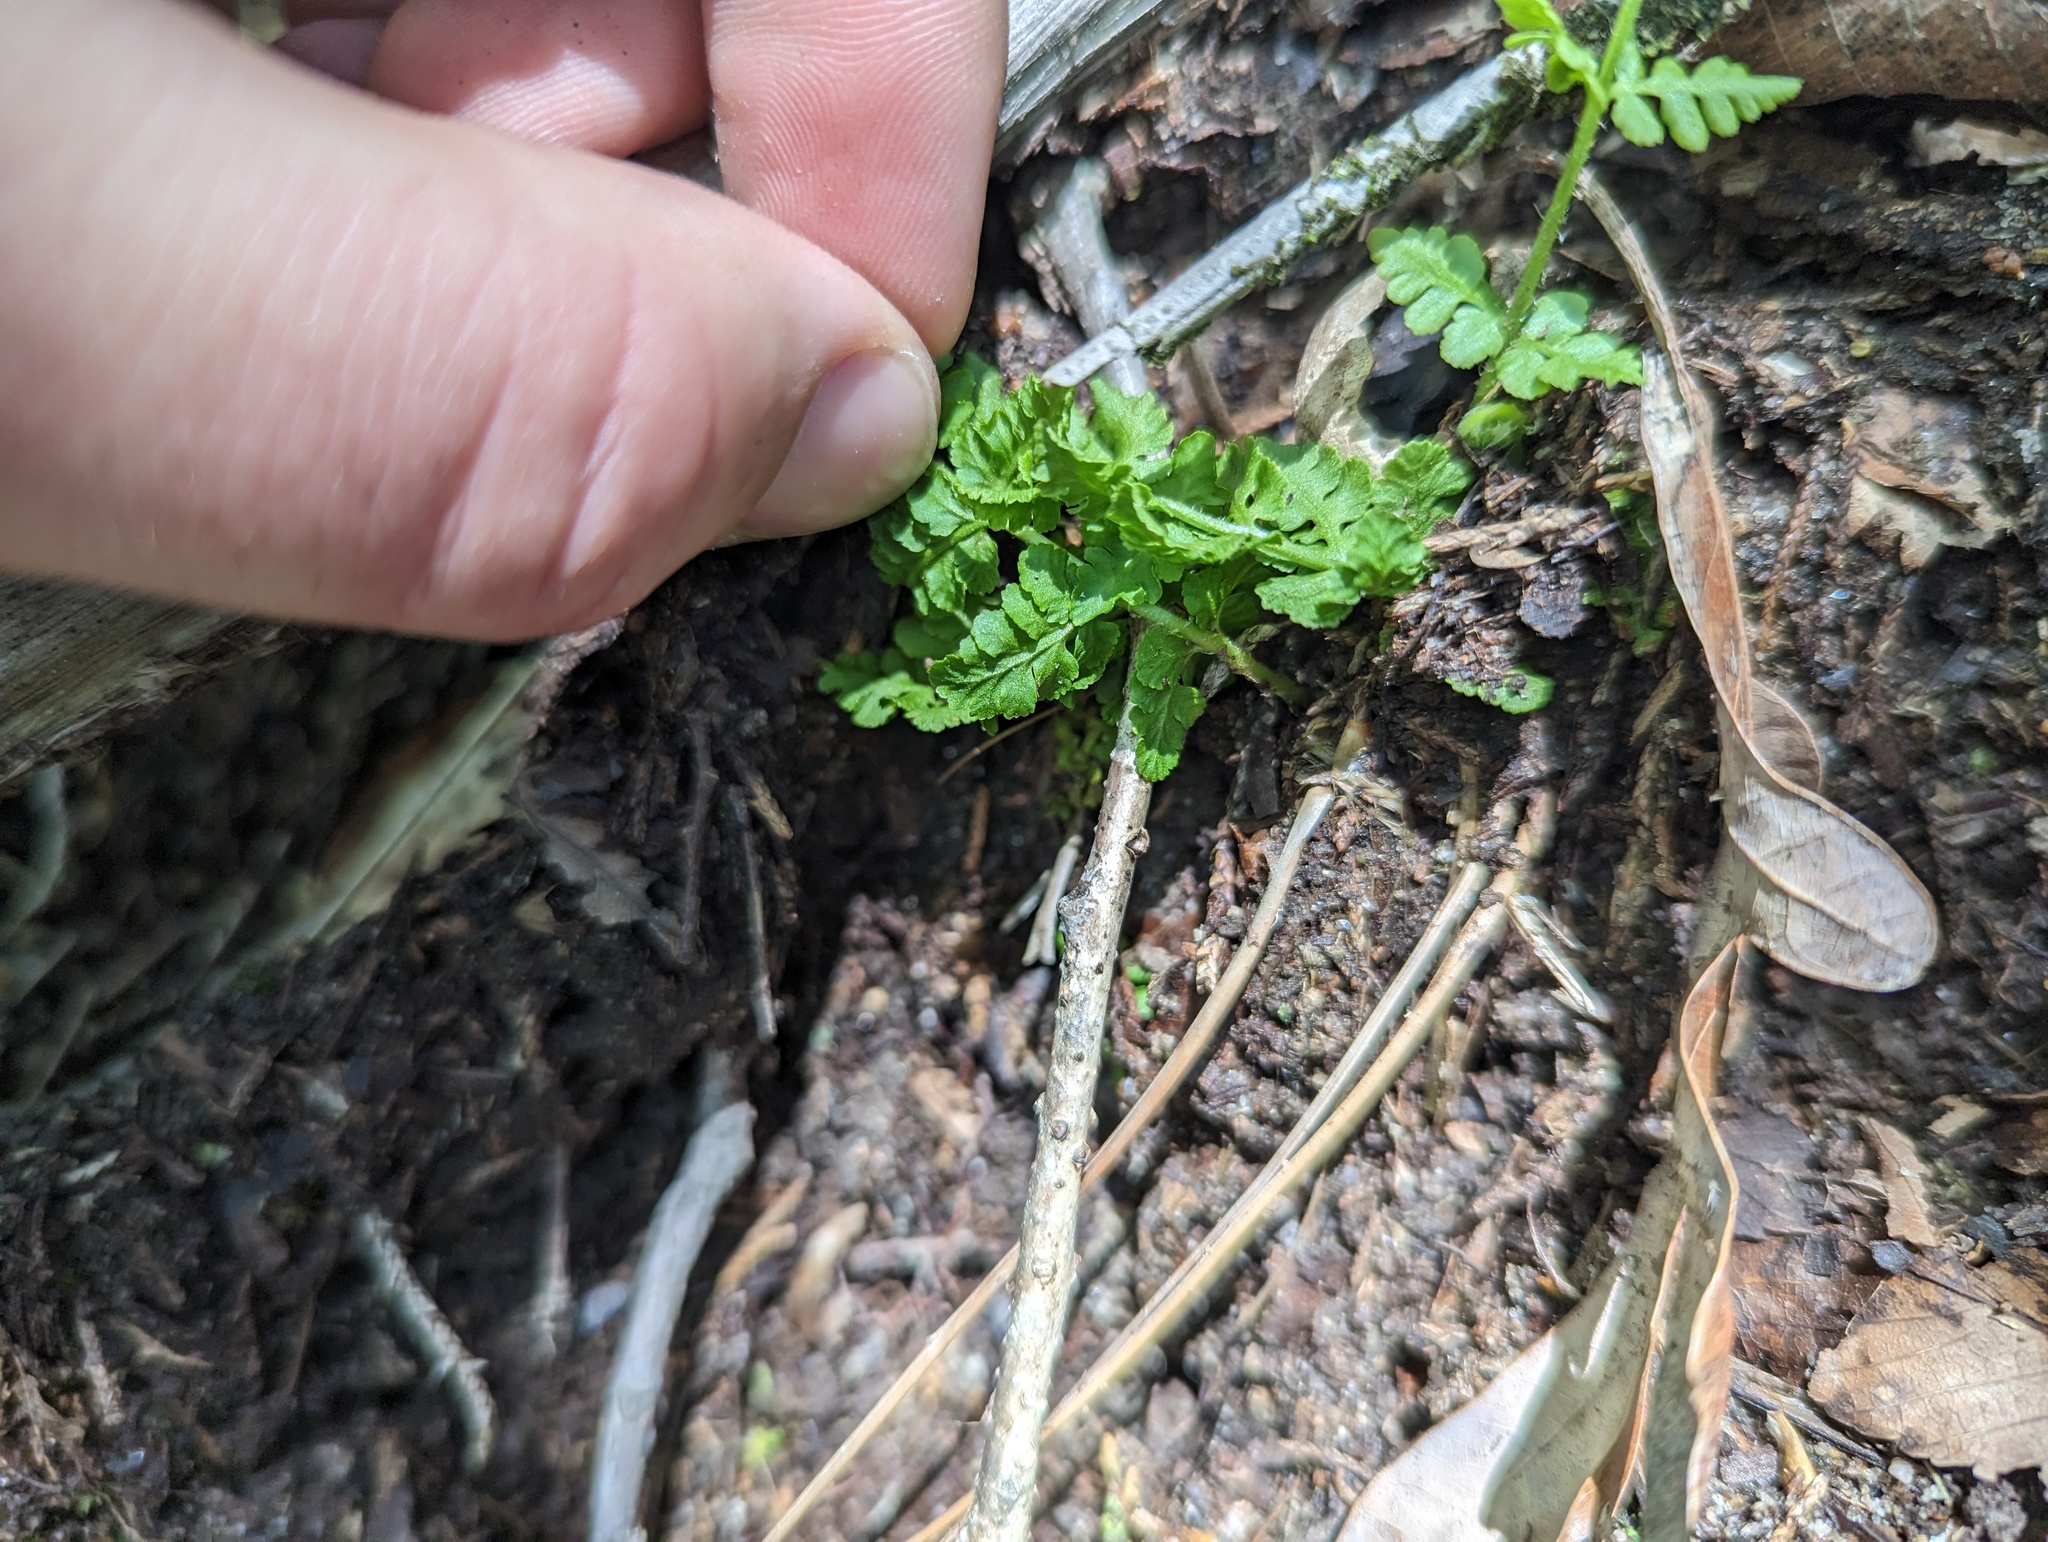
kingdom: Plantae
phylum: Tracheophyta
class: Polypodiopsida
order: Polypodiales
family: Woodsiaceae
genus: Physematium
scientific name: Physematium obtusum
